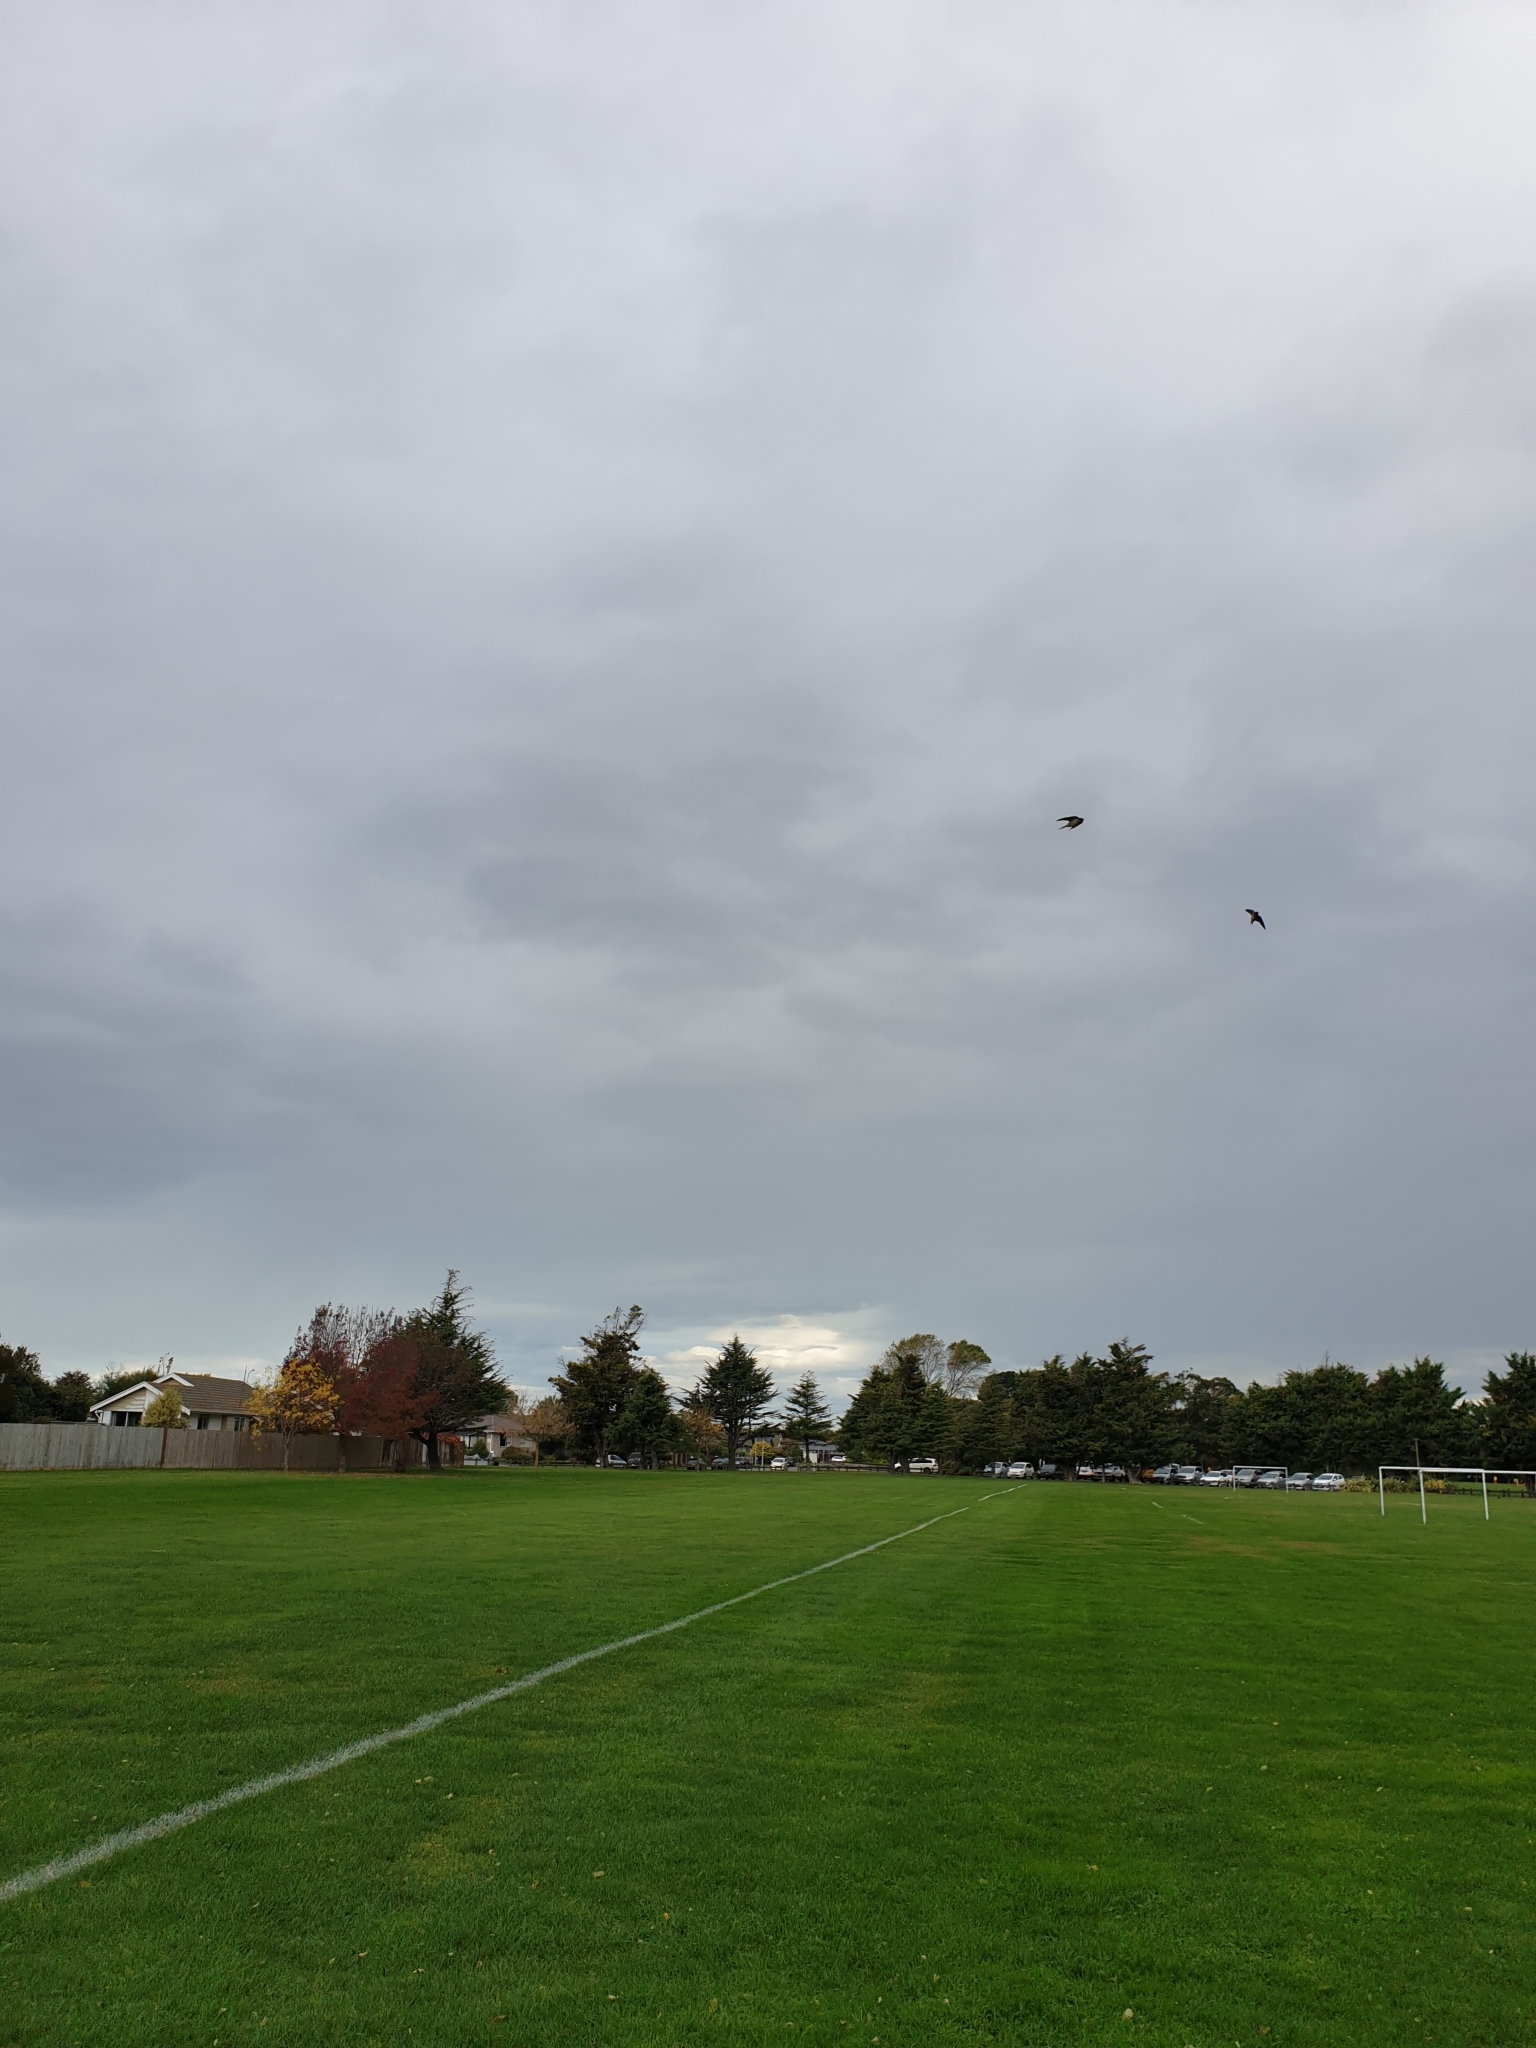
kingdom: Animalia
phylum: Chordata
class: Aves
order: Passeriformes
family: Hirundinidae
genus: Hirundo
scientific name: Hirundo neoxena
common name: Welcome swallow
